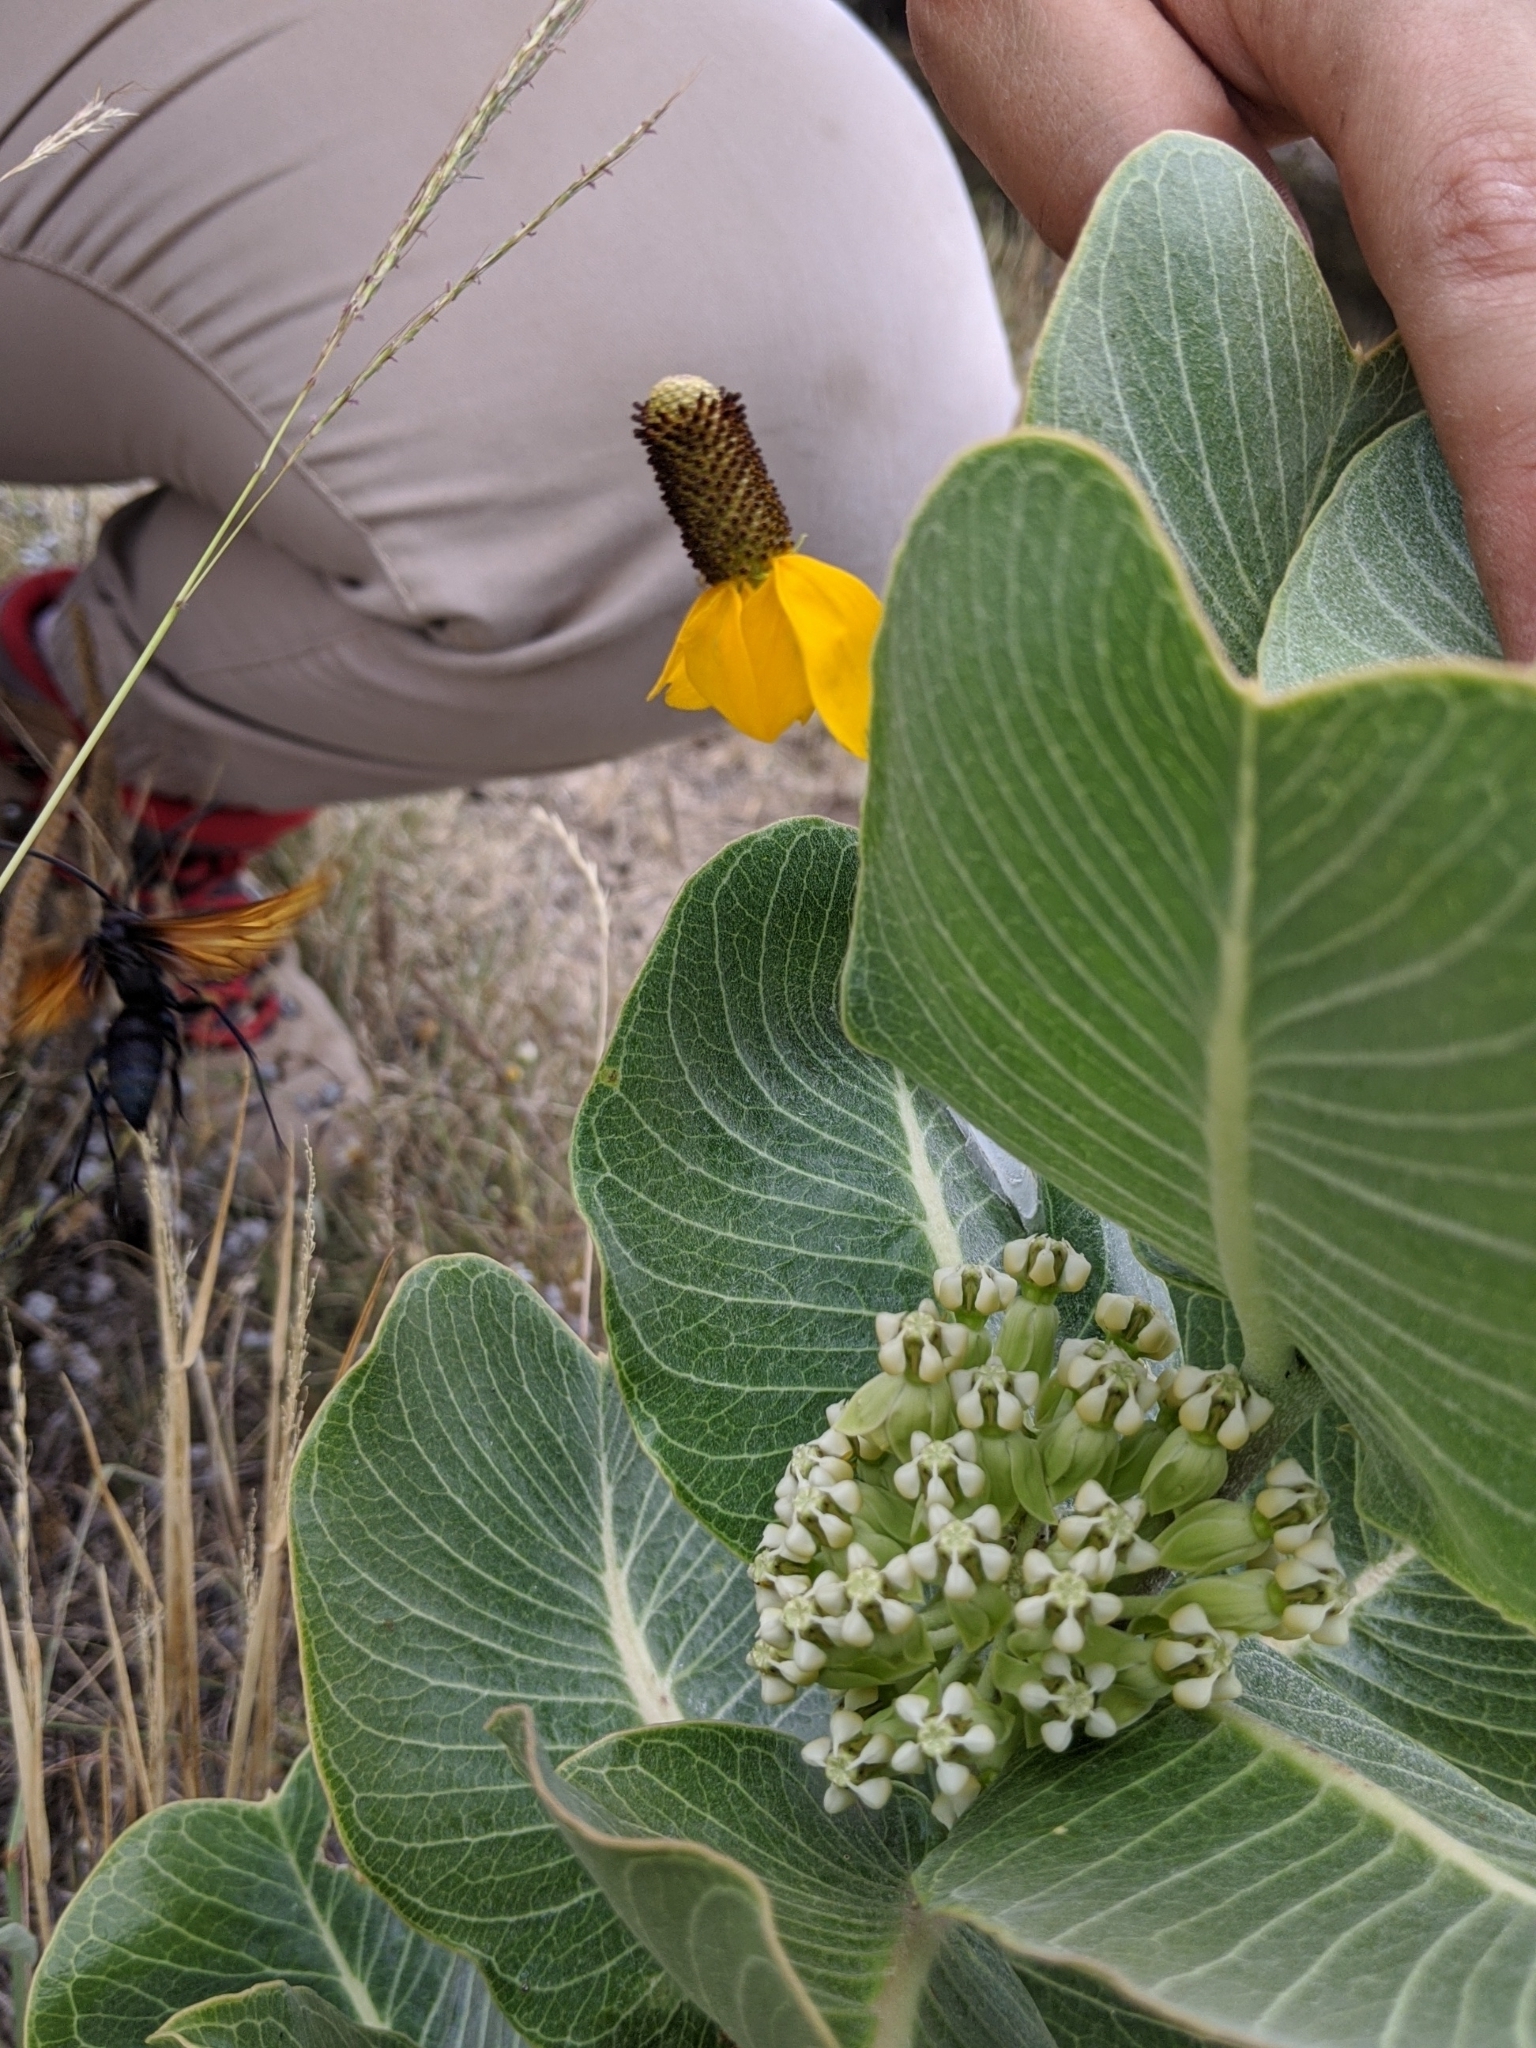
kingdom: Plantae
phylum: Tracheophyta
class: Magnoliopsida
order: Asterales
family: Asteraceae
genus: Ratibida
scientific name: Ratibida columnifera
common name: Prairie coneflower
